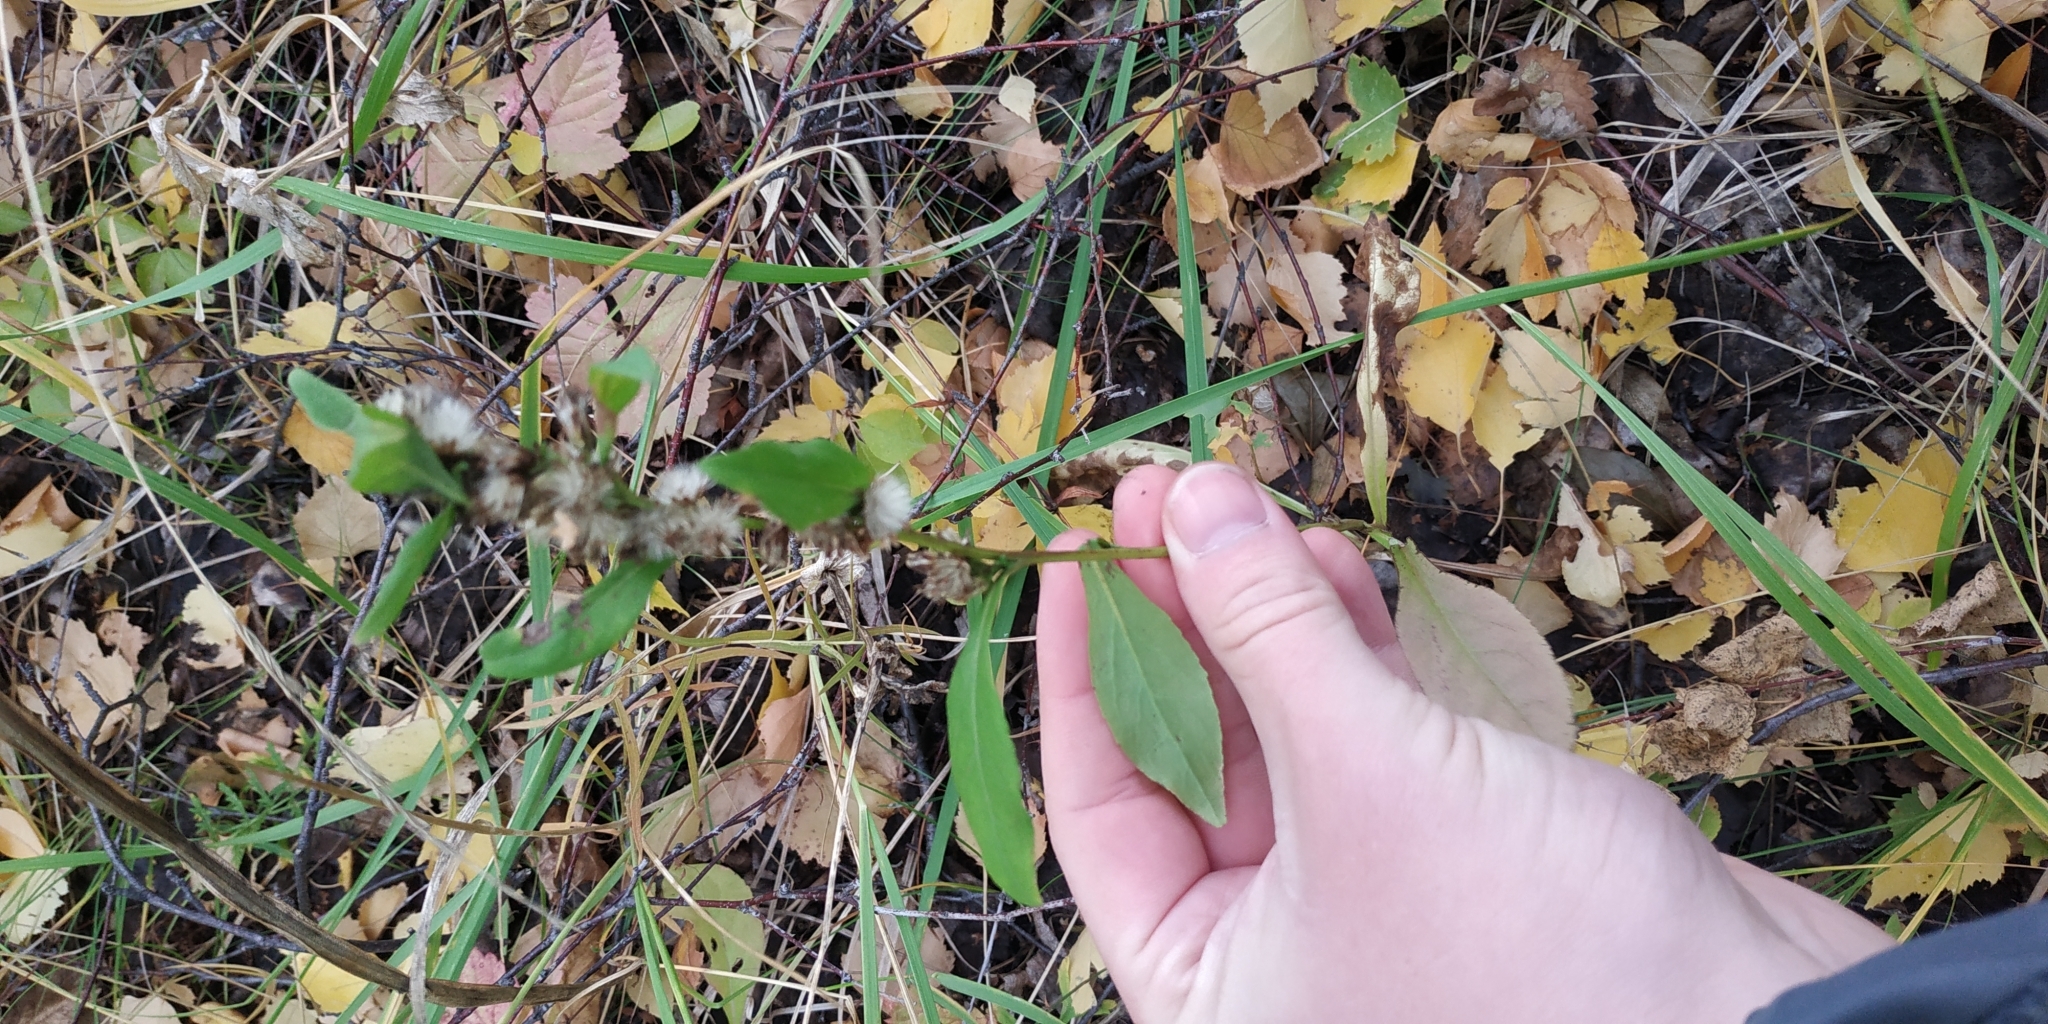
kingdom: Plantae
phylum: Tracheophyta
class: Magnoliopsida
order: Asterales
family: Asteraceae
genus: Solidago
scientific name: Solidago virgaurea
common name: Goldenrod
